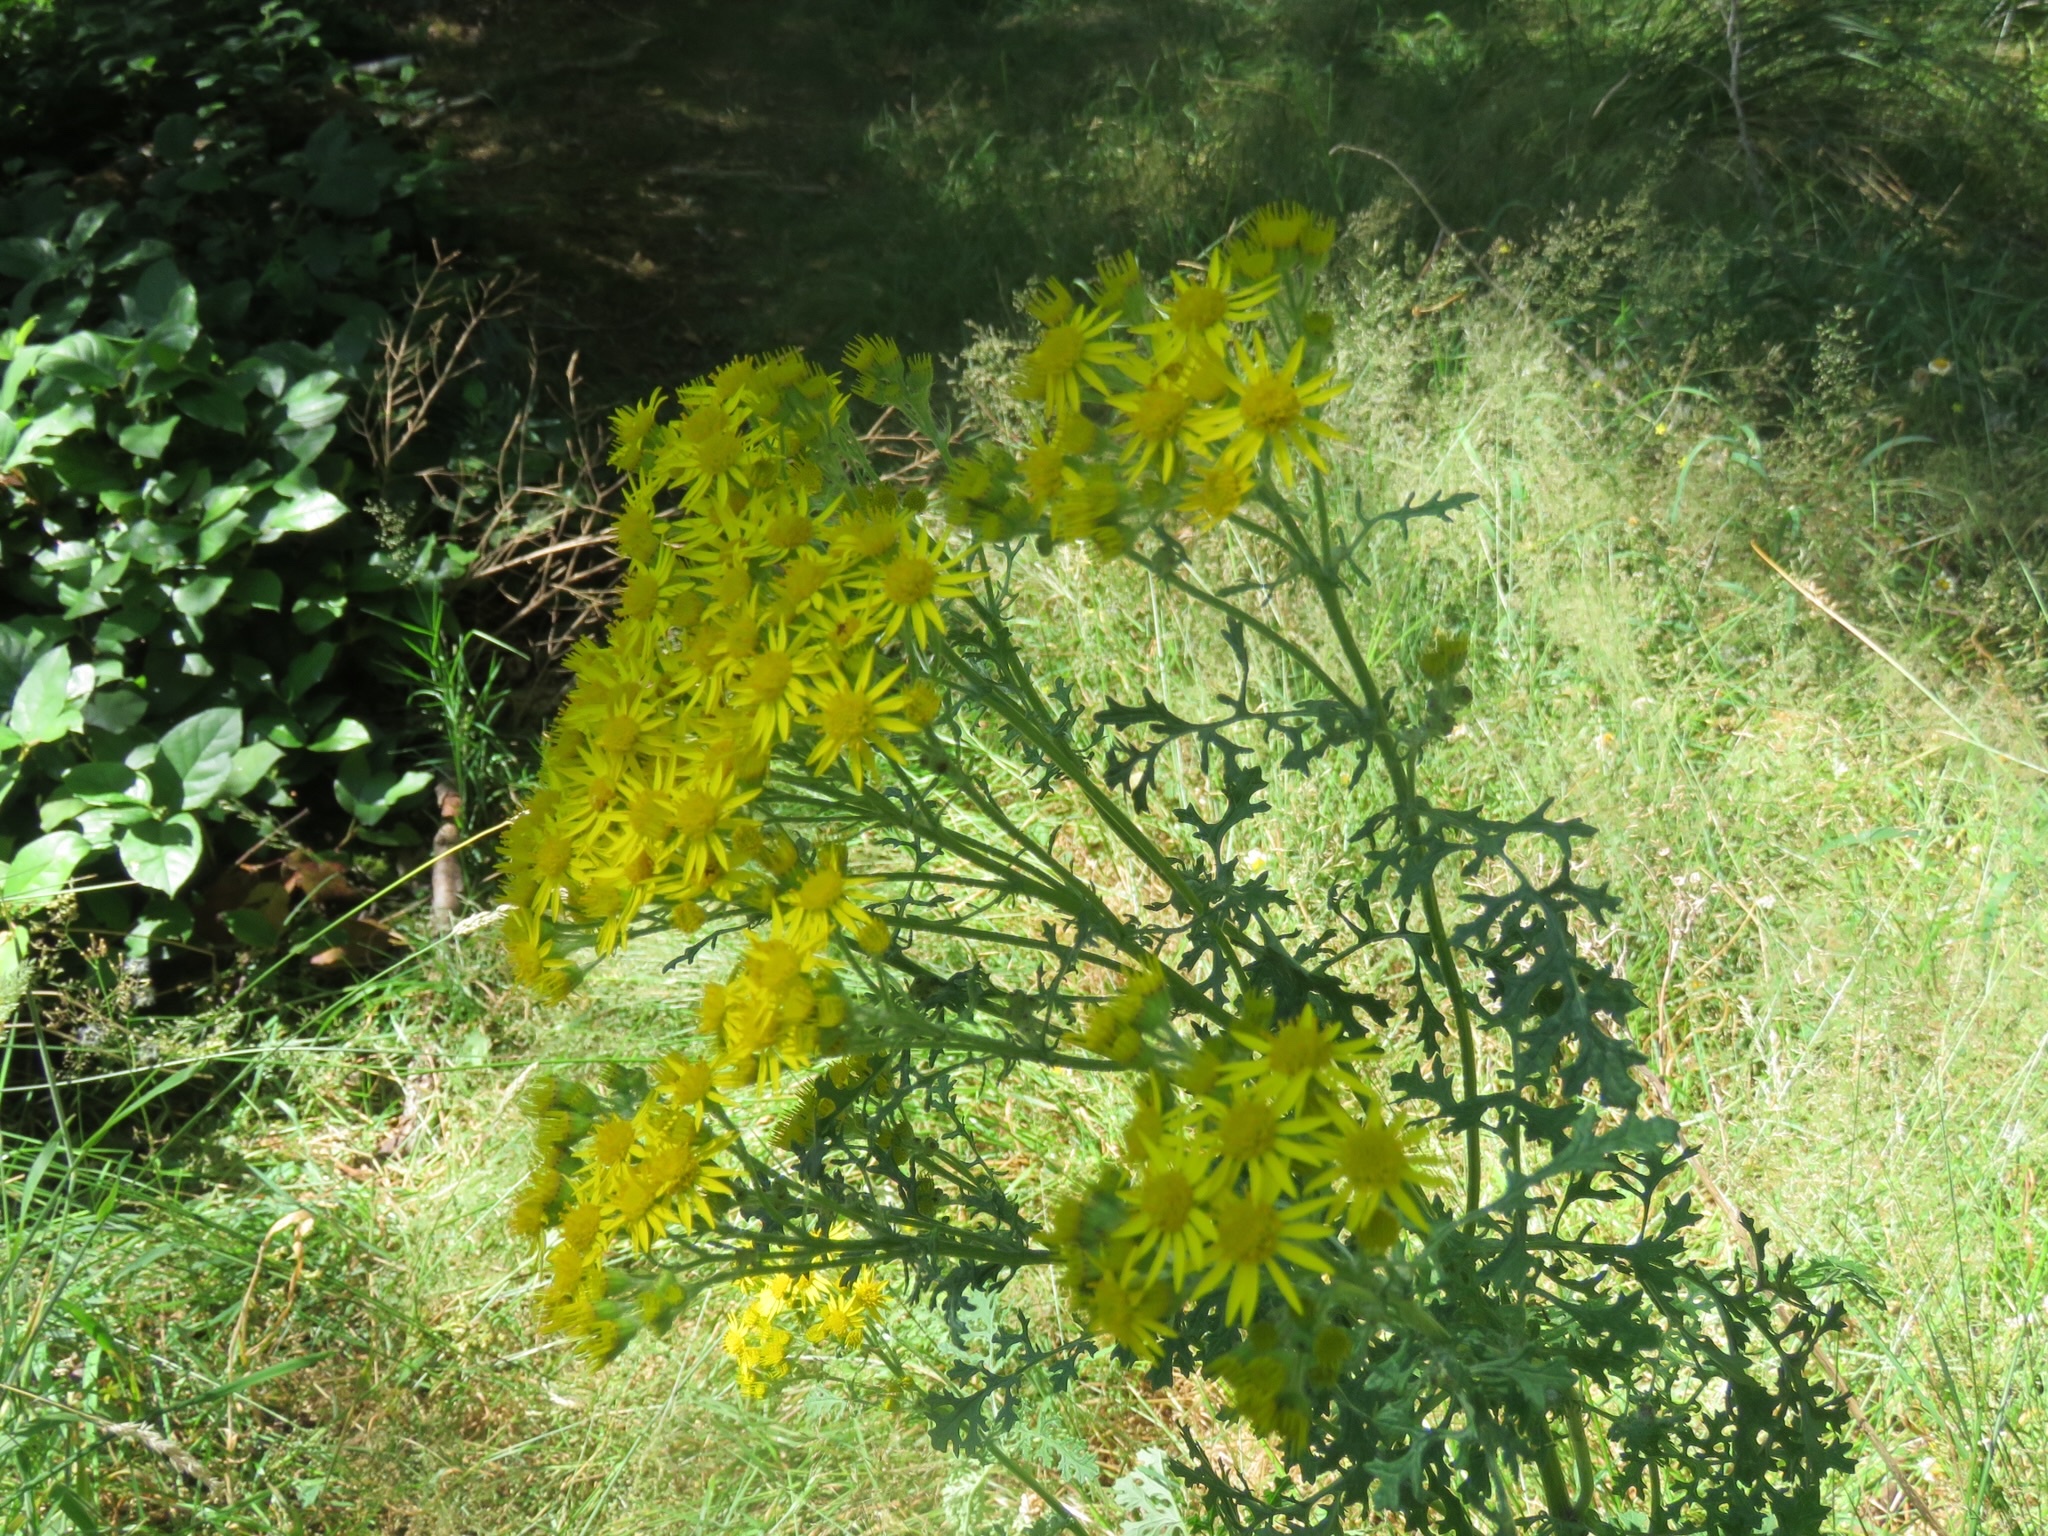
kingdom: Plantae
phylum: Tracheophyta
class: Magnoliopsida
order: Asterales
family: Asteraceae
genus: Jacobaea
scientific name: Jacobaea vulgaris
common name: Stinking willie
